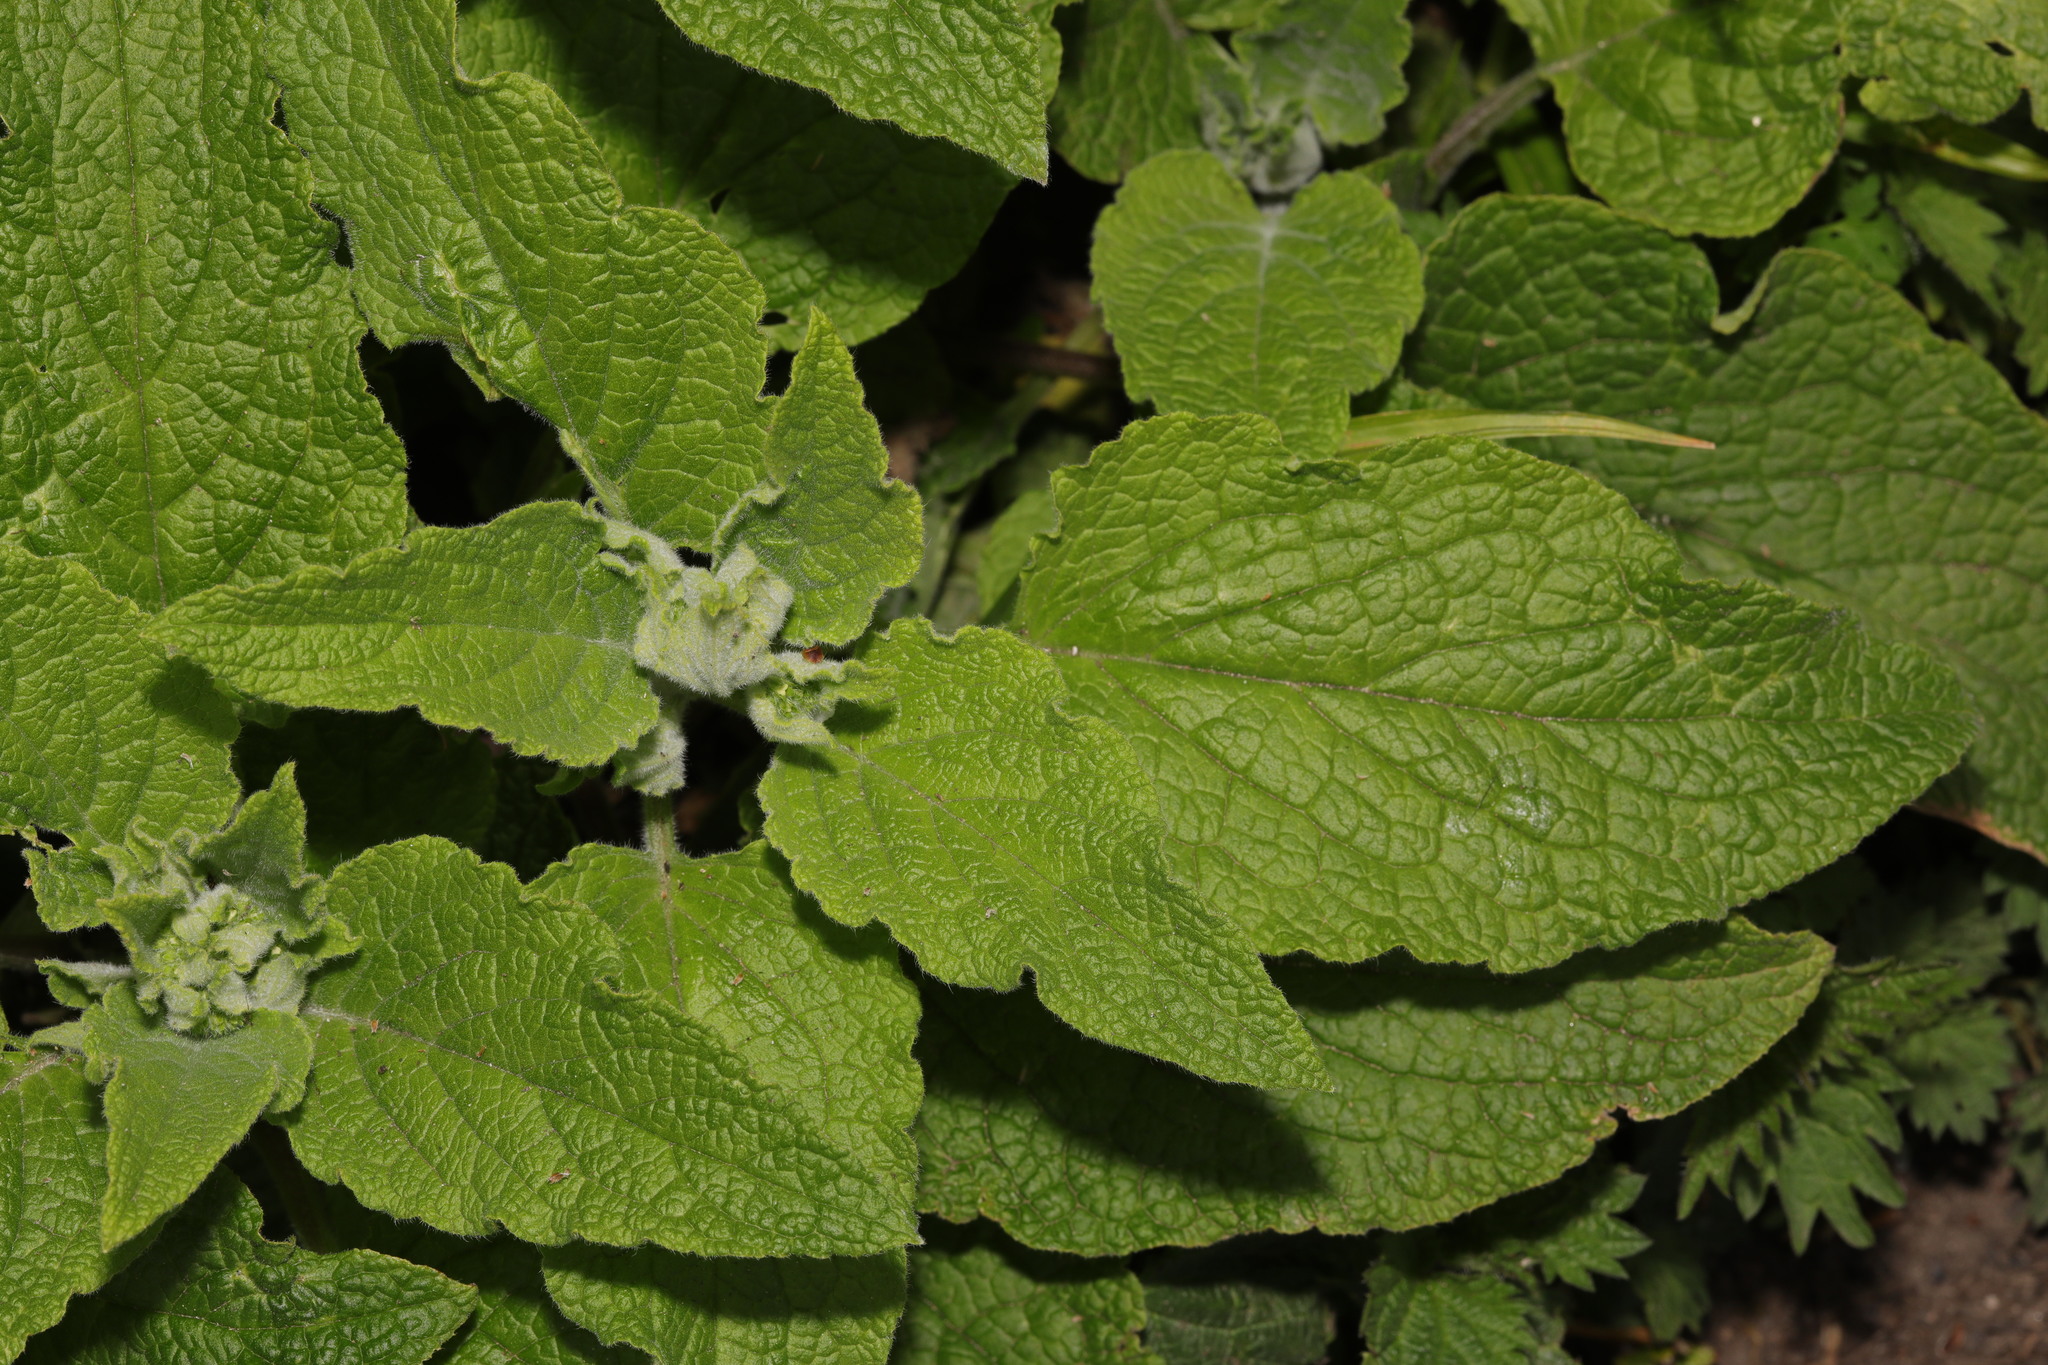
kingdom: Plantae
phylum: Tracheophyta
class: Magnoliopsida
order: Lamiales
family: Lamiaceae
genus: Teucrium
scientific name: Teucrium scorodonia
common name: Woodland germander
